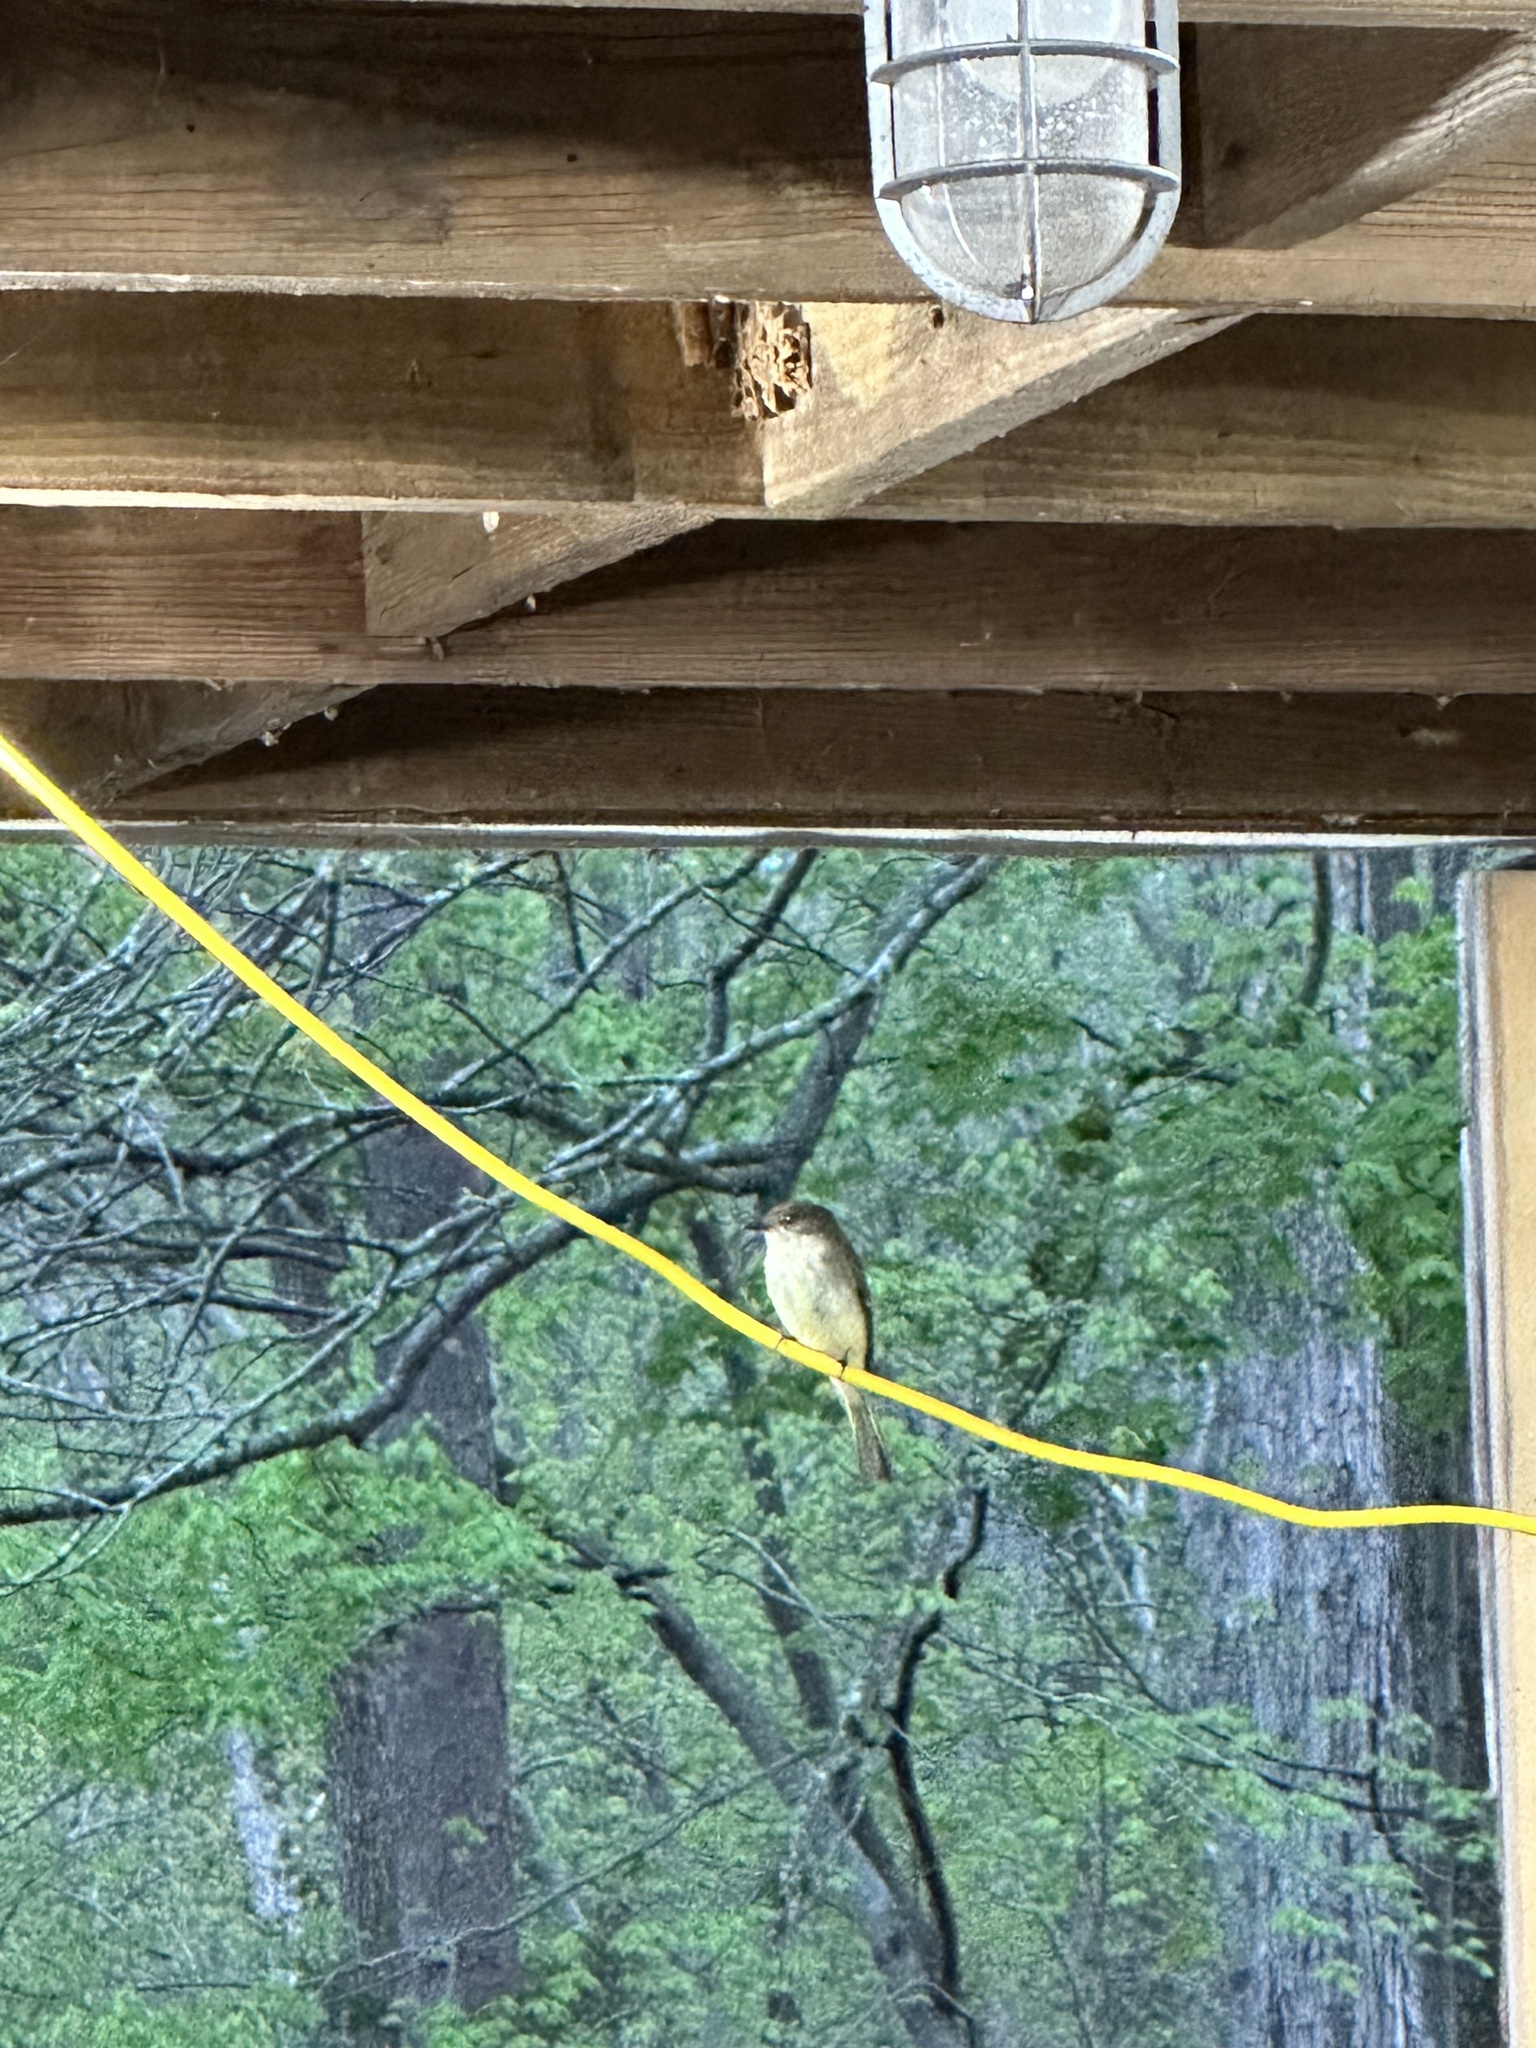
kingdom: Animalia
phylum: Chordata
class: Aves
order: Passeriformes
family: Tyrannidae
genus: Sayornis
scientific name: Sayornis phoebe
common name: Eastern phoebe
